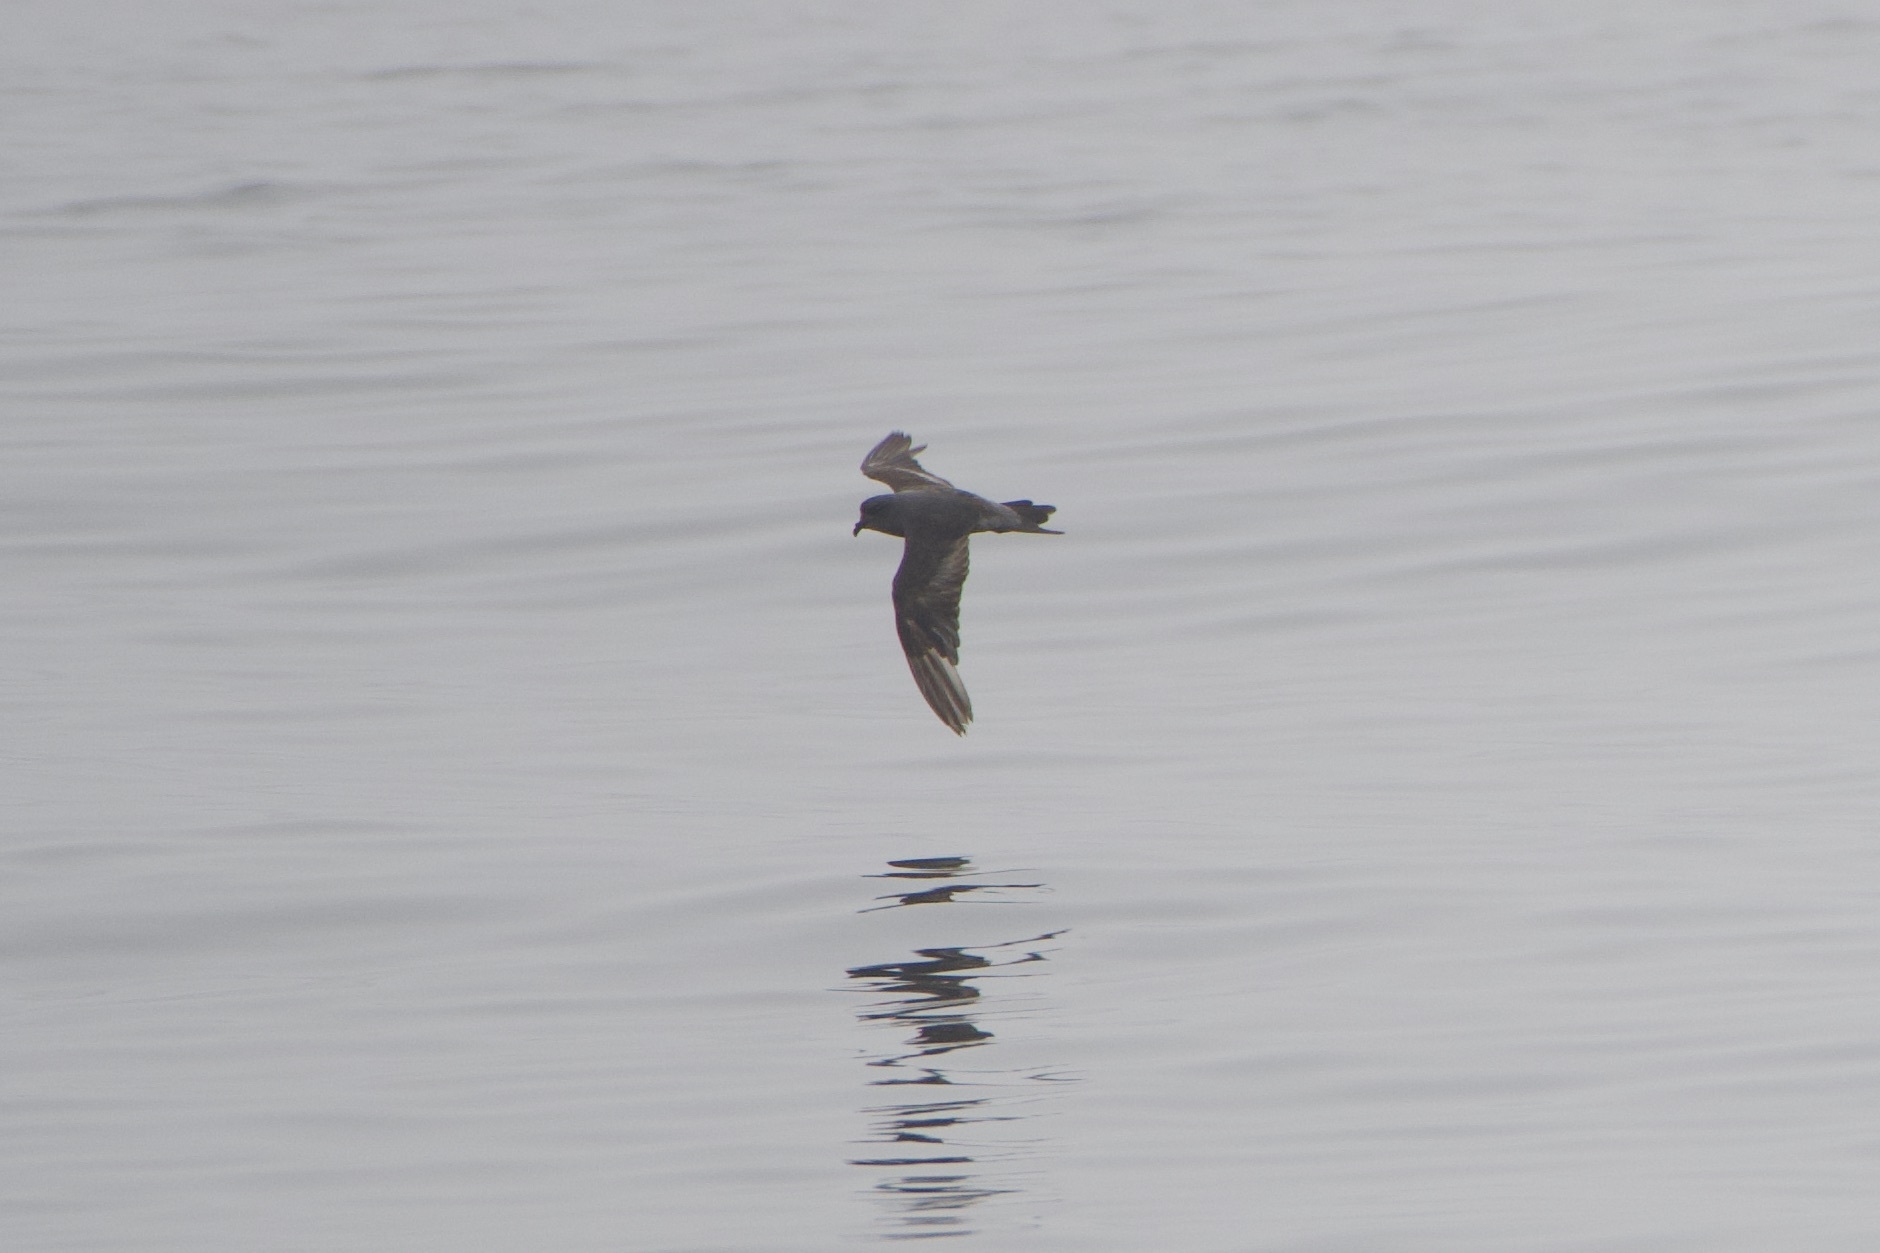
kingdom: Animalia
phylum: Chordata
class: Aves
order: Procellariiformes
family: Hydrobatidae
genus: Hydrobates
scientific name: Hydrobates homochroa
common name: Ashy storm petrel
